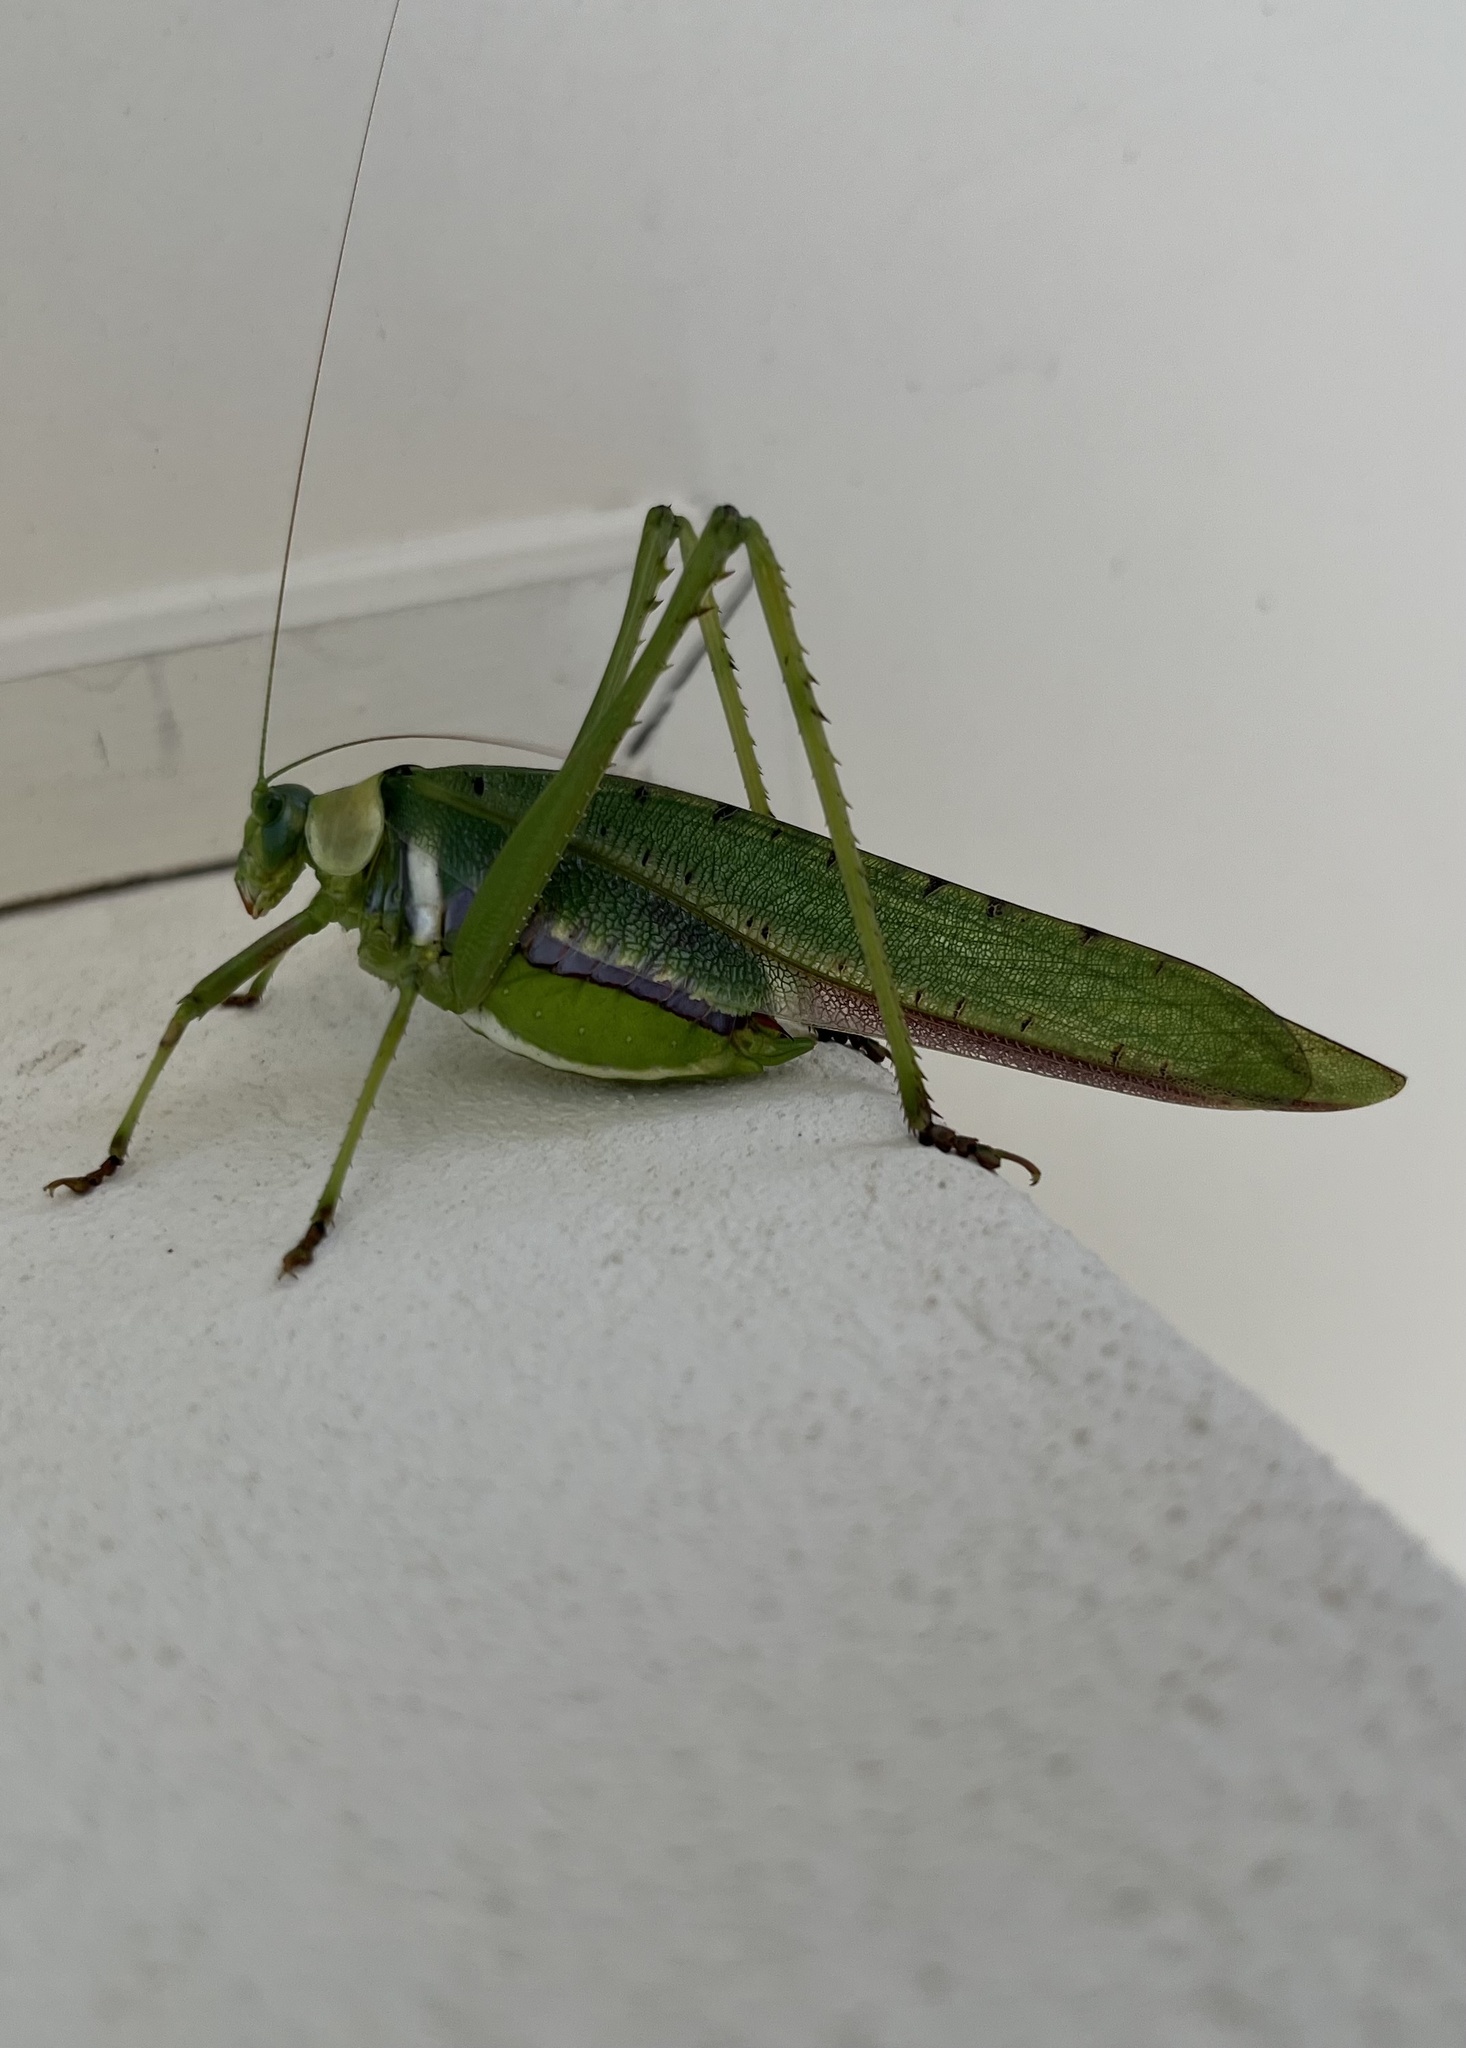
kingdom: Animalia
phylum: Arthropoda
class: Insecta
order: Orthoptera
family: Tettigoniidae
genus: Ephippitytha
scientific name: Ephippitytha trigintiduoguttata
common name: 32-spotted katydid
